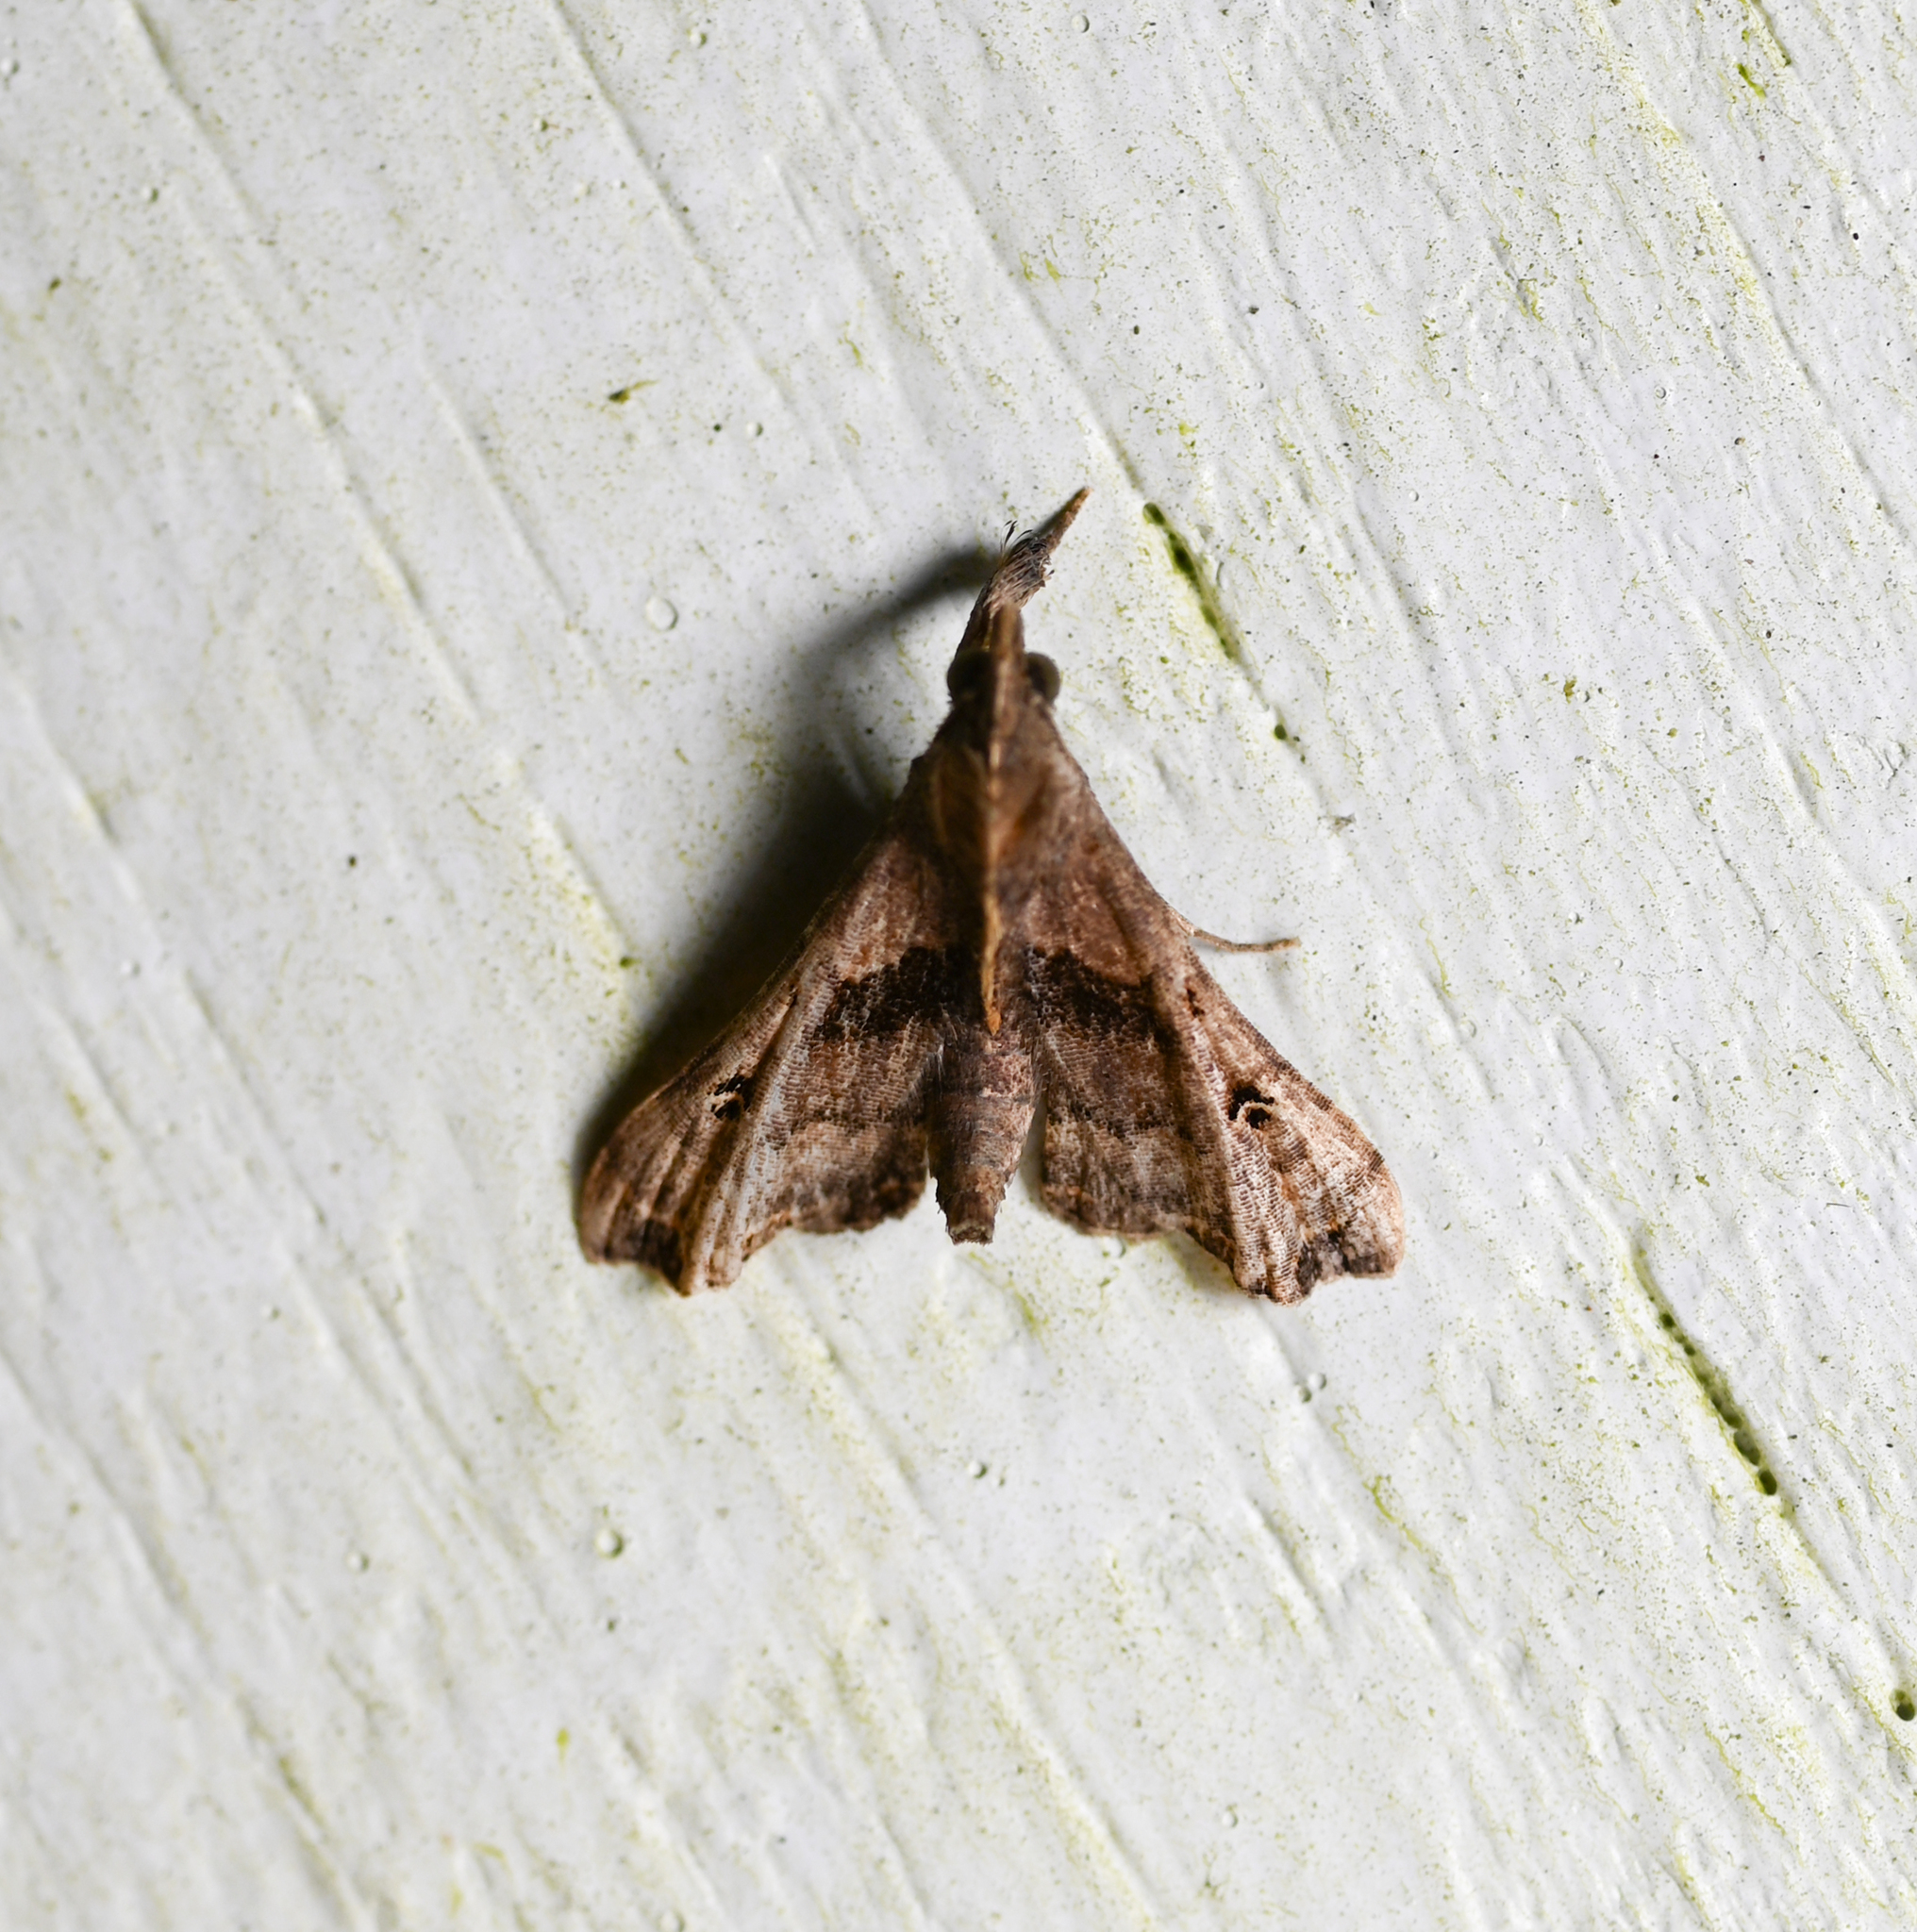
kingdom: Animalia
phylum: Arthropoda
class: Insecta
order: Lepidoptera
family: Erebidae
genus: Palthis
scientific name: Palthis asopialis
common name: Faint-spotted palthis moth
